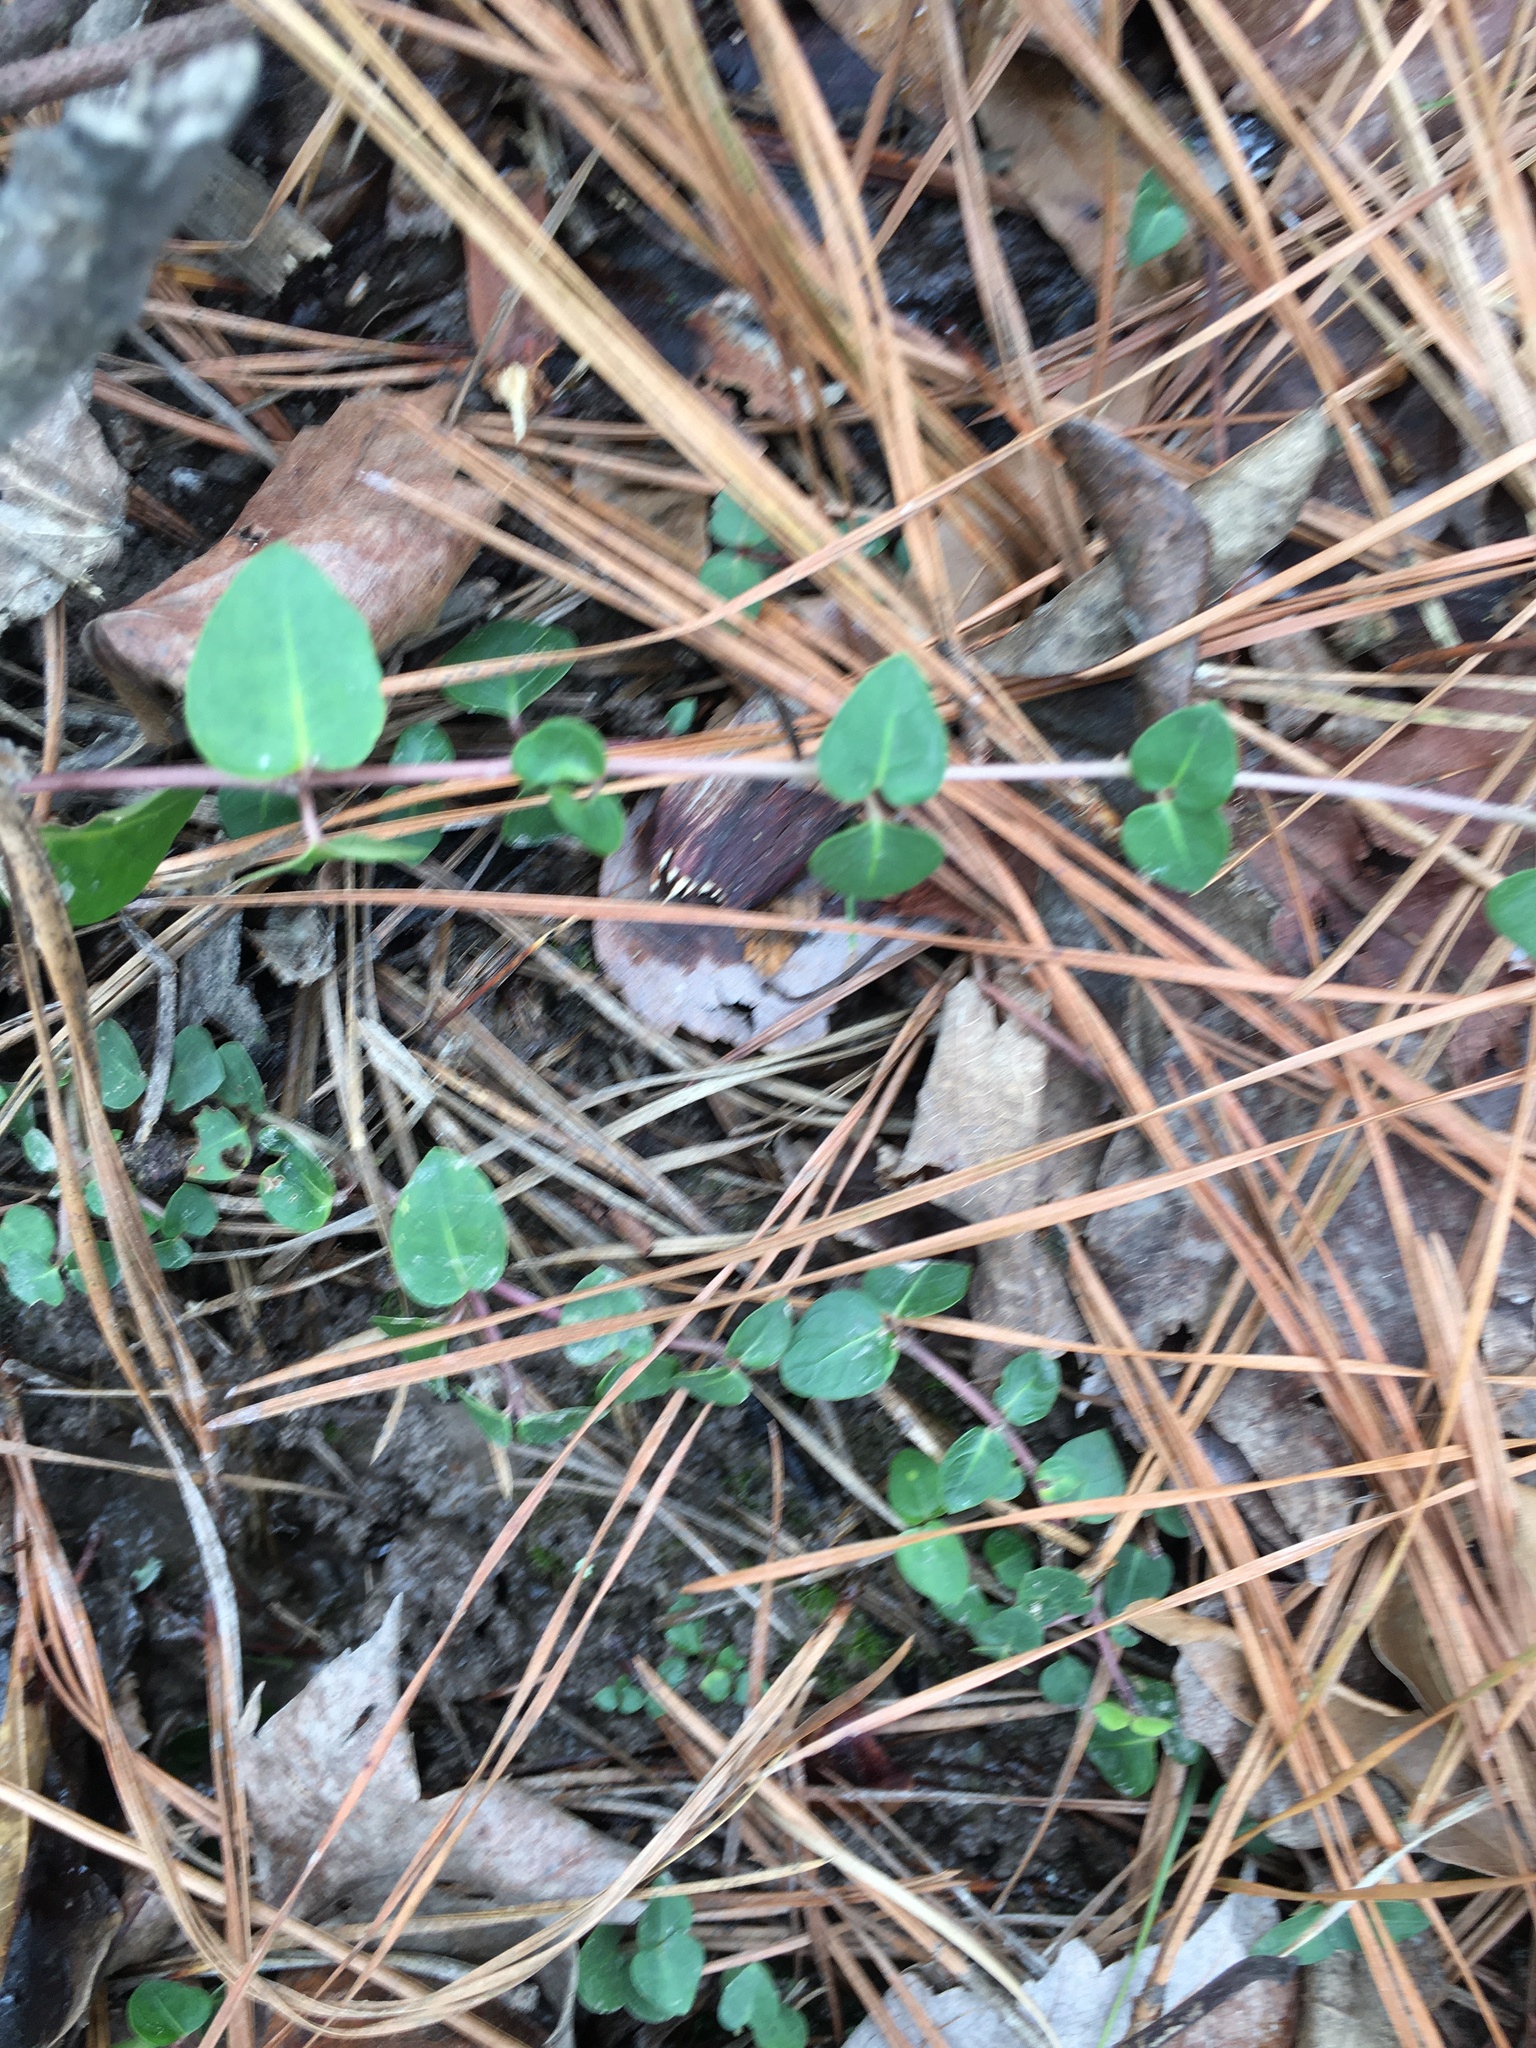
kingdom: Plantae
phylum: Tracheophyta
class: Magnoliopsida
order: Gentianales
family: Rubiaceae
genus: Mitchella
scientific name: Mitchella repens
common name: Partridge-berry
